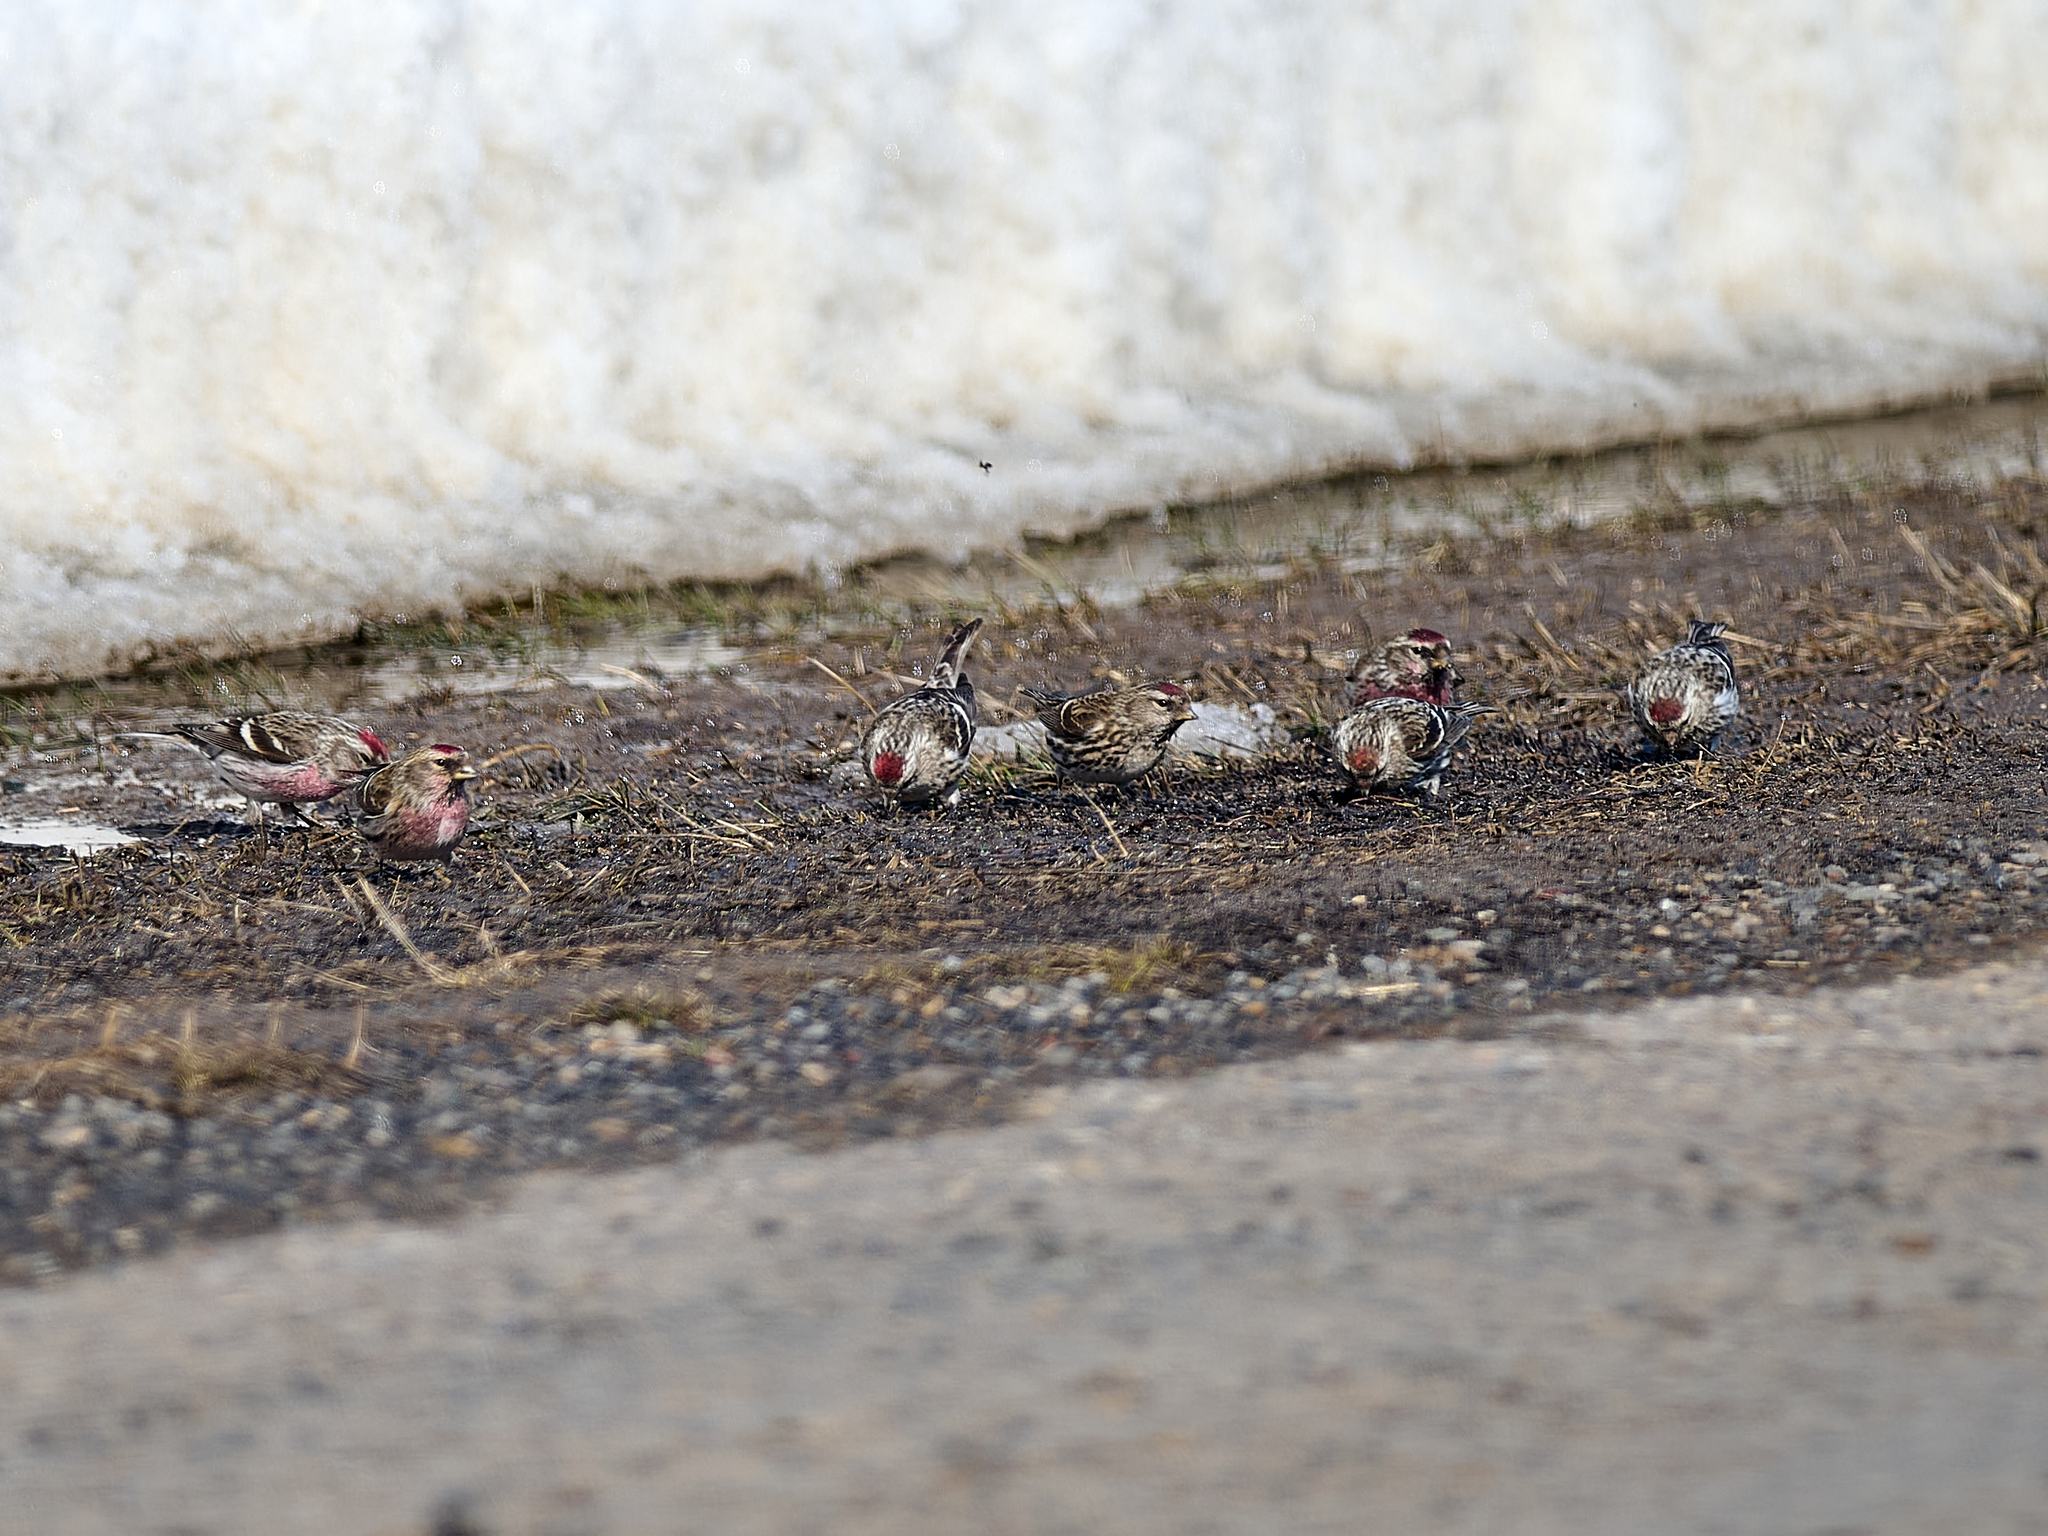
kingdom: Animalia
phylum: Chordata
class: Aves
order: Passeriformes
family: Fringillidae
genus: Acanthis
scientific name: Acanthis flammea
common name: Common redpoll
